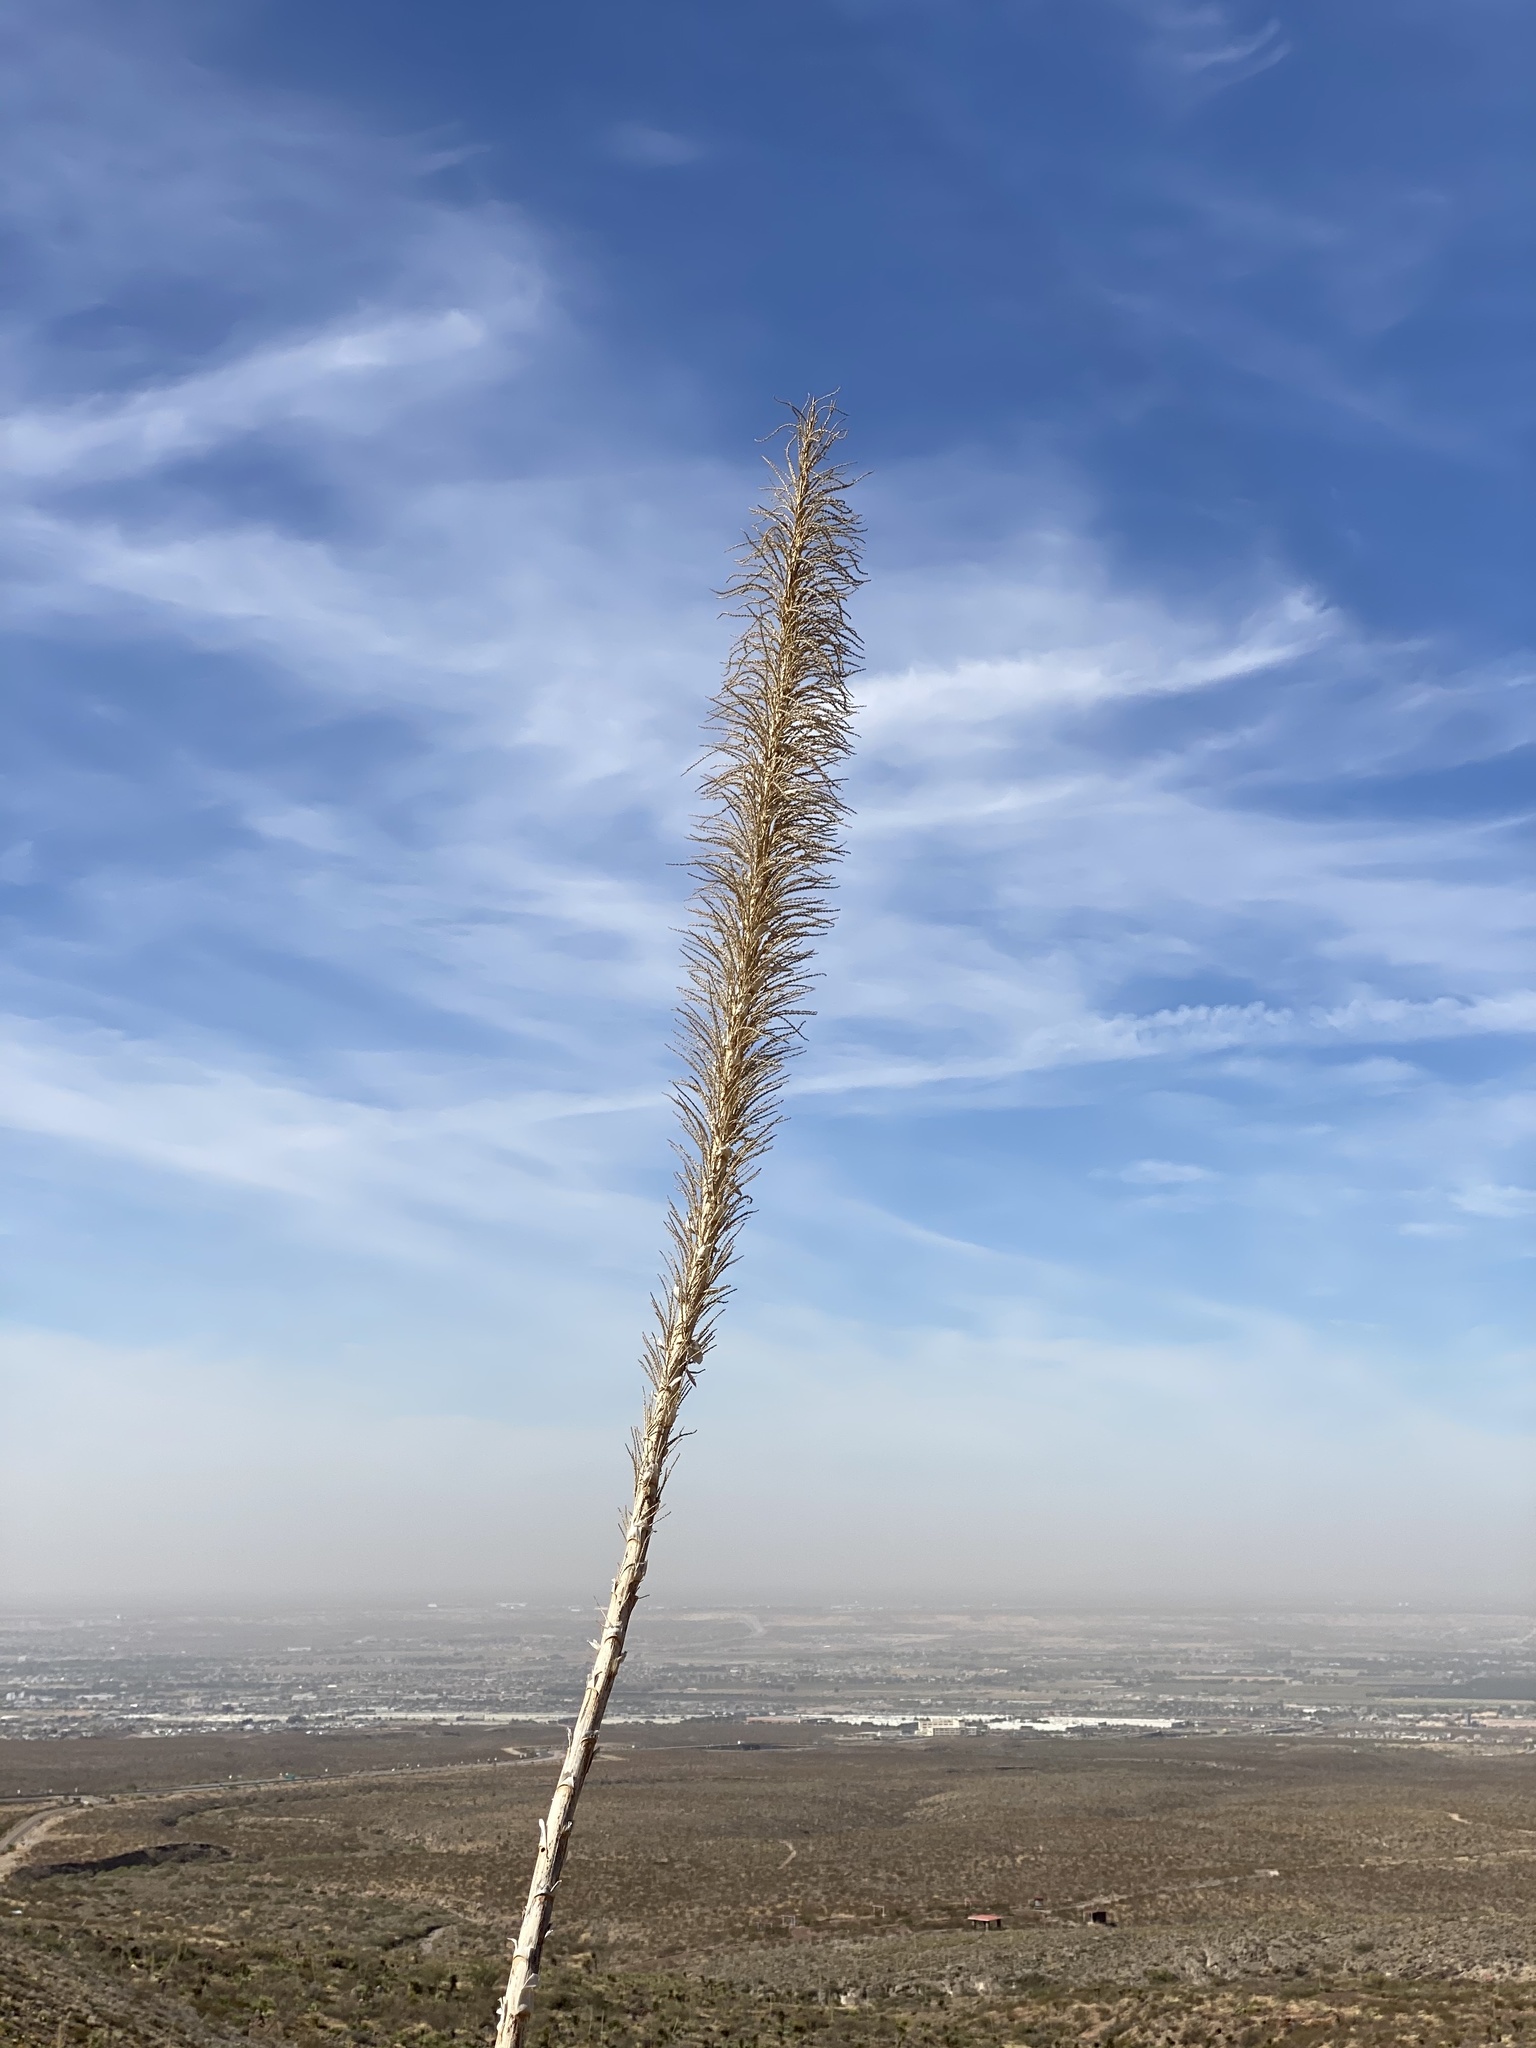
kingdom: Plantae
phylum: Tracheophyta
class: Liliopsida
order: Asparagales
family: Asparagaceae
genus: Dasylirion
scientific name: Dasylirion wheeleri
